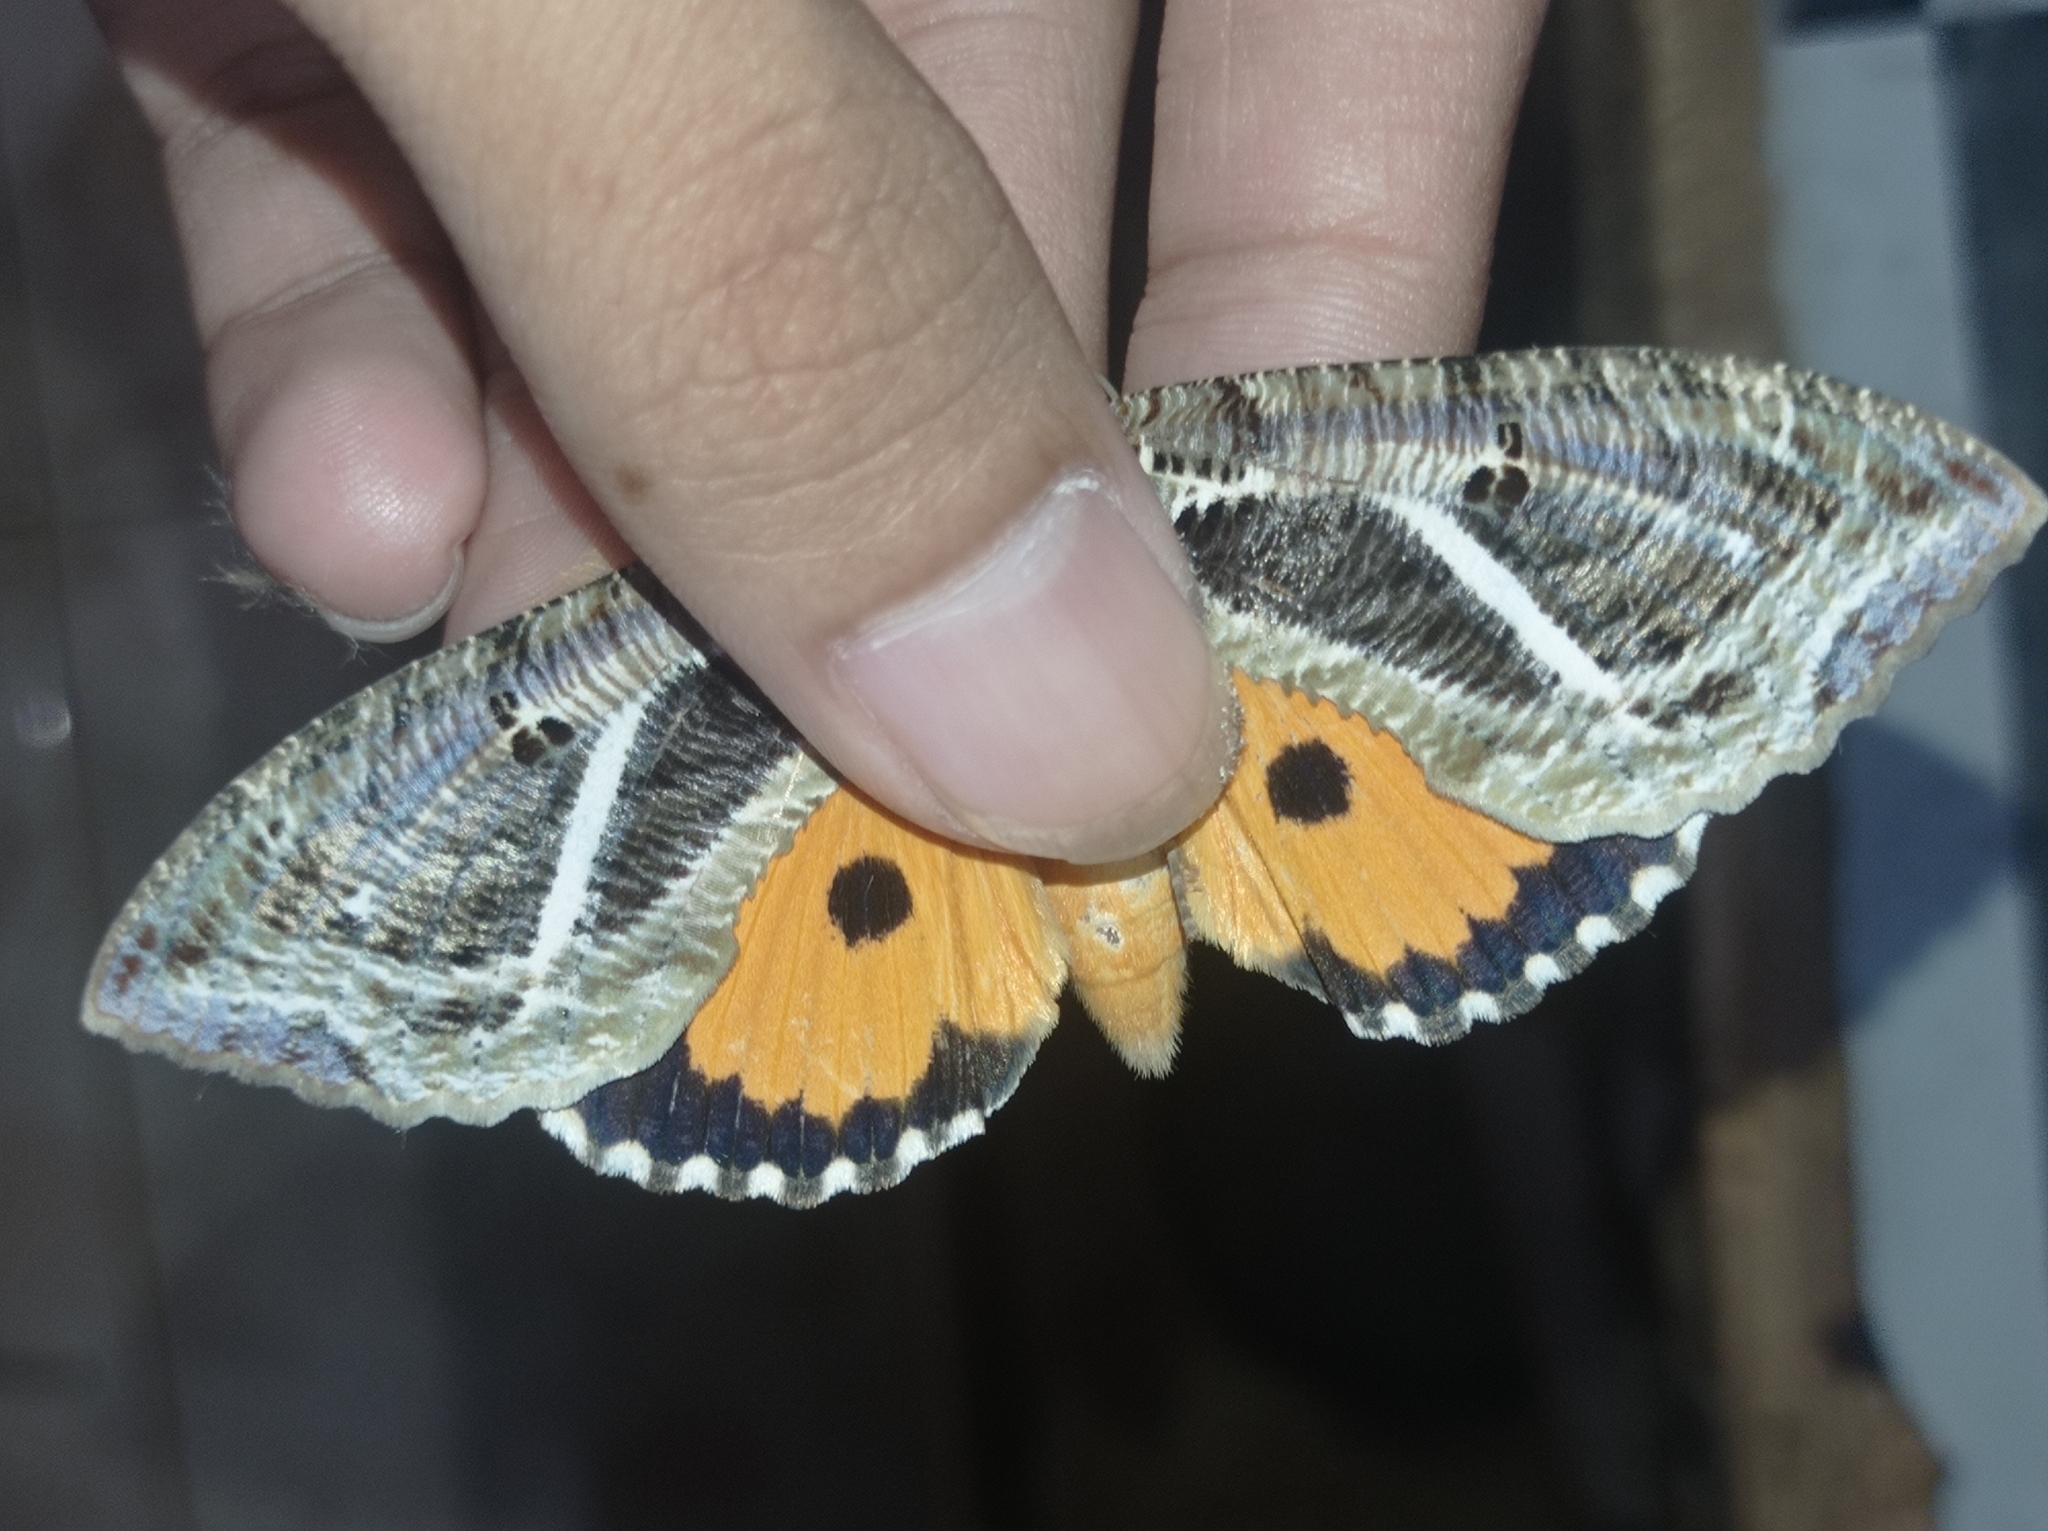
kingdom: Animalia
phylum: Arthropoda
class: Insecta
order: Lepidoptera
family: Erebidae
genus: Eudocima
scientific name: Eudocima materna
